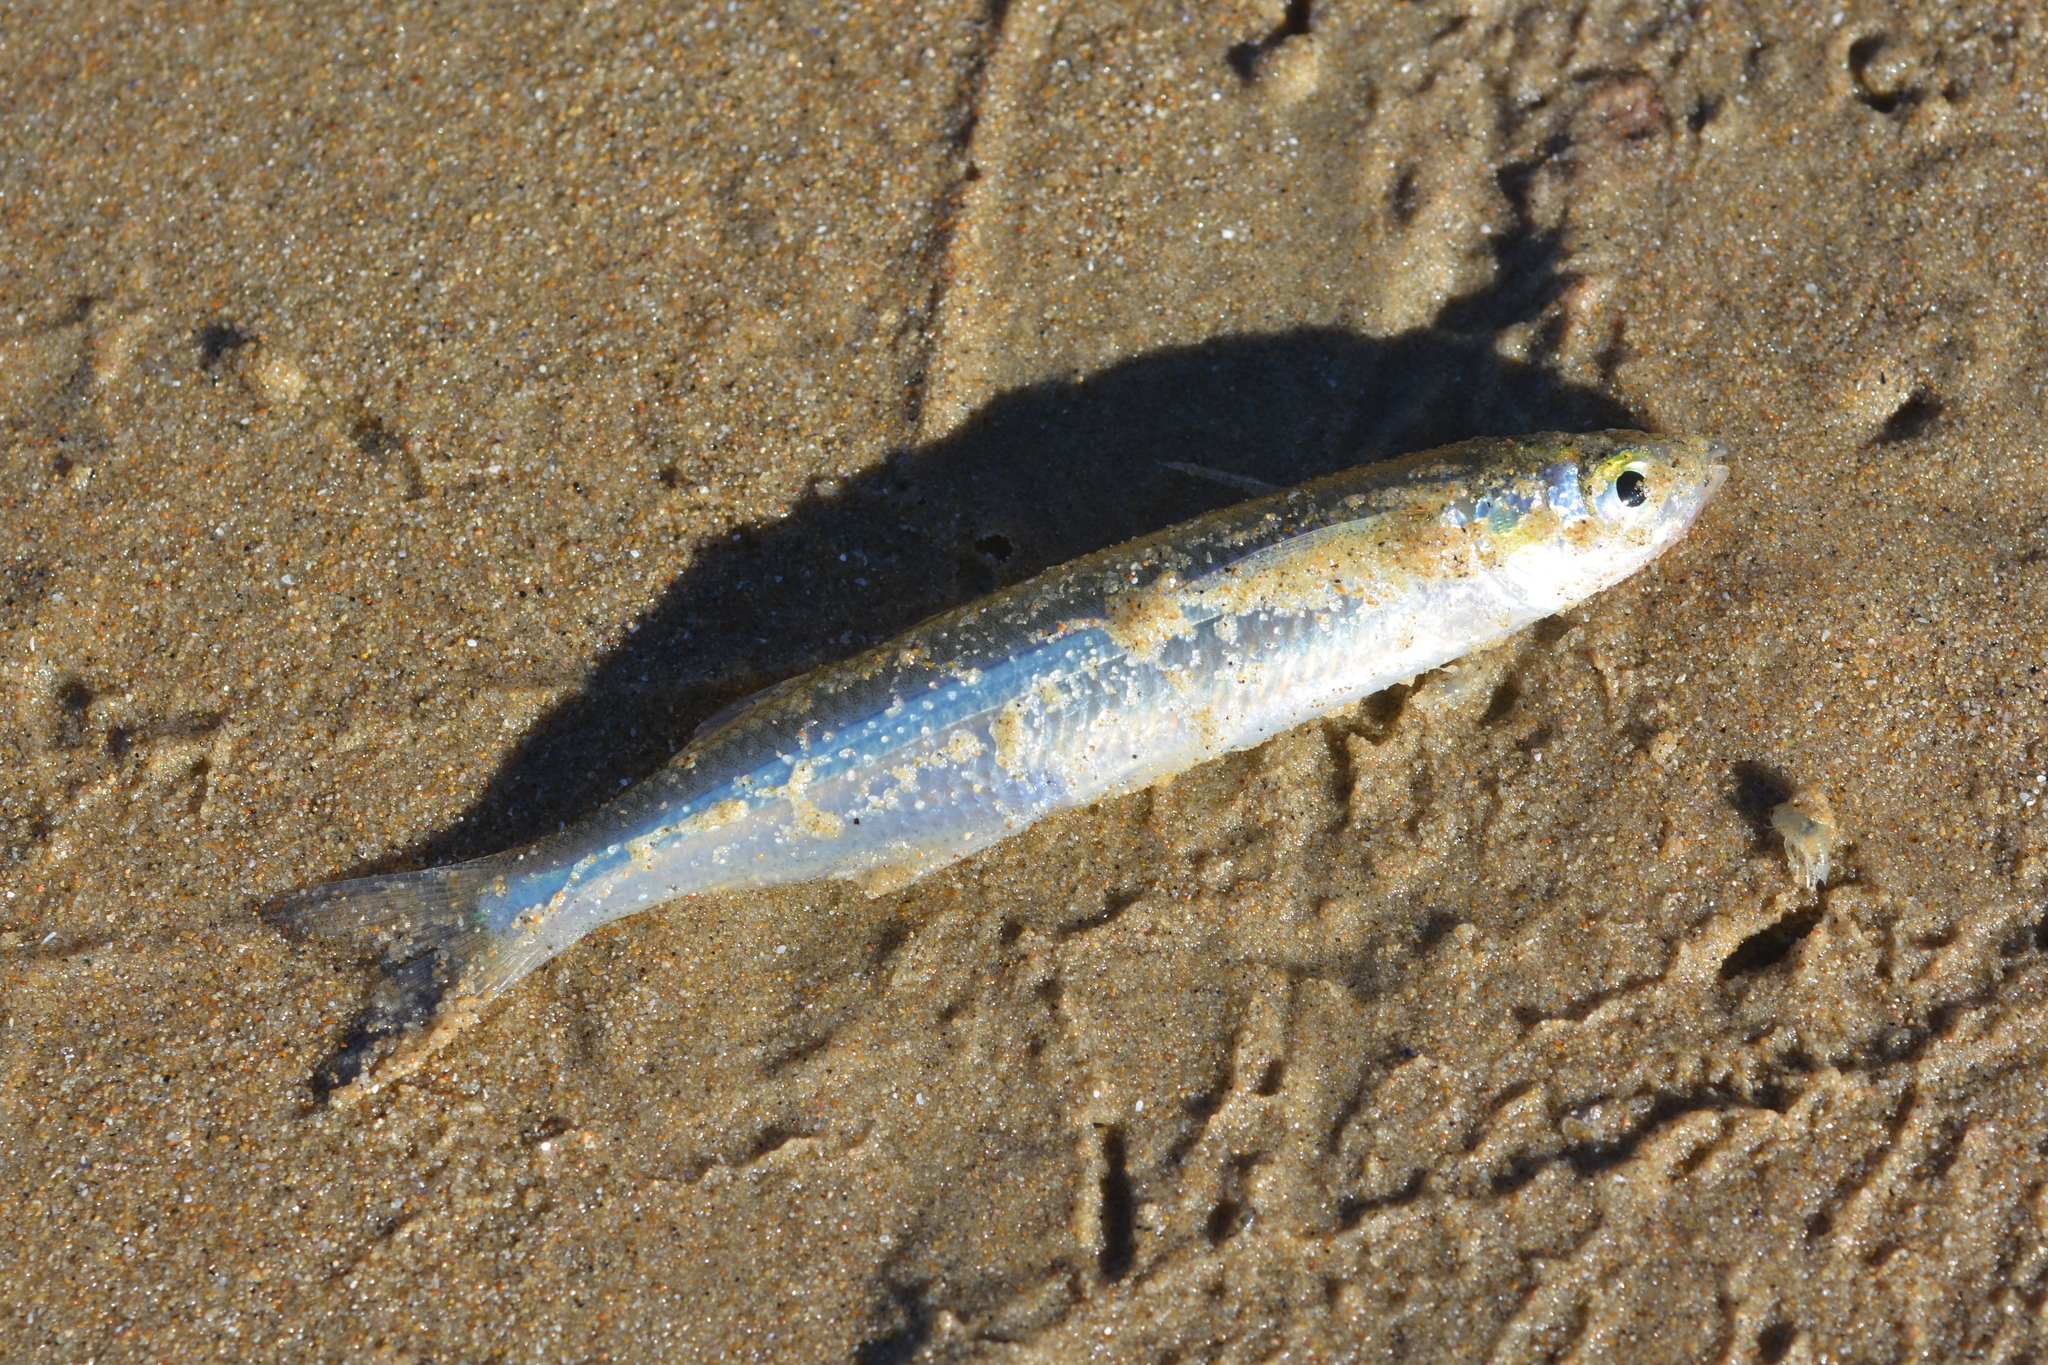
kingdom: Animalia
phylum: Chordata
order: Atheriniformes
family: Atherinopsidae
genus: Atherinops
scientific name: Atherinops affinis
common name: Topsmelt
